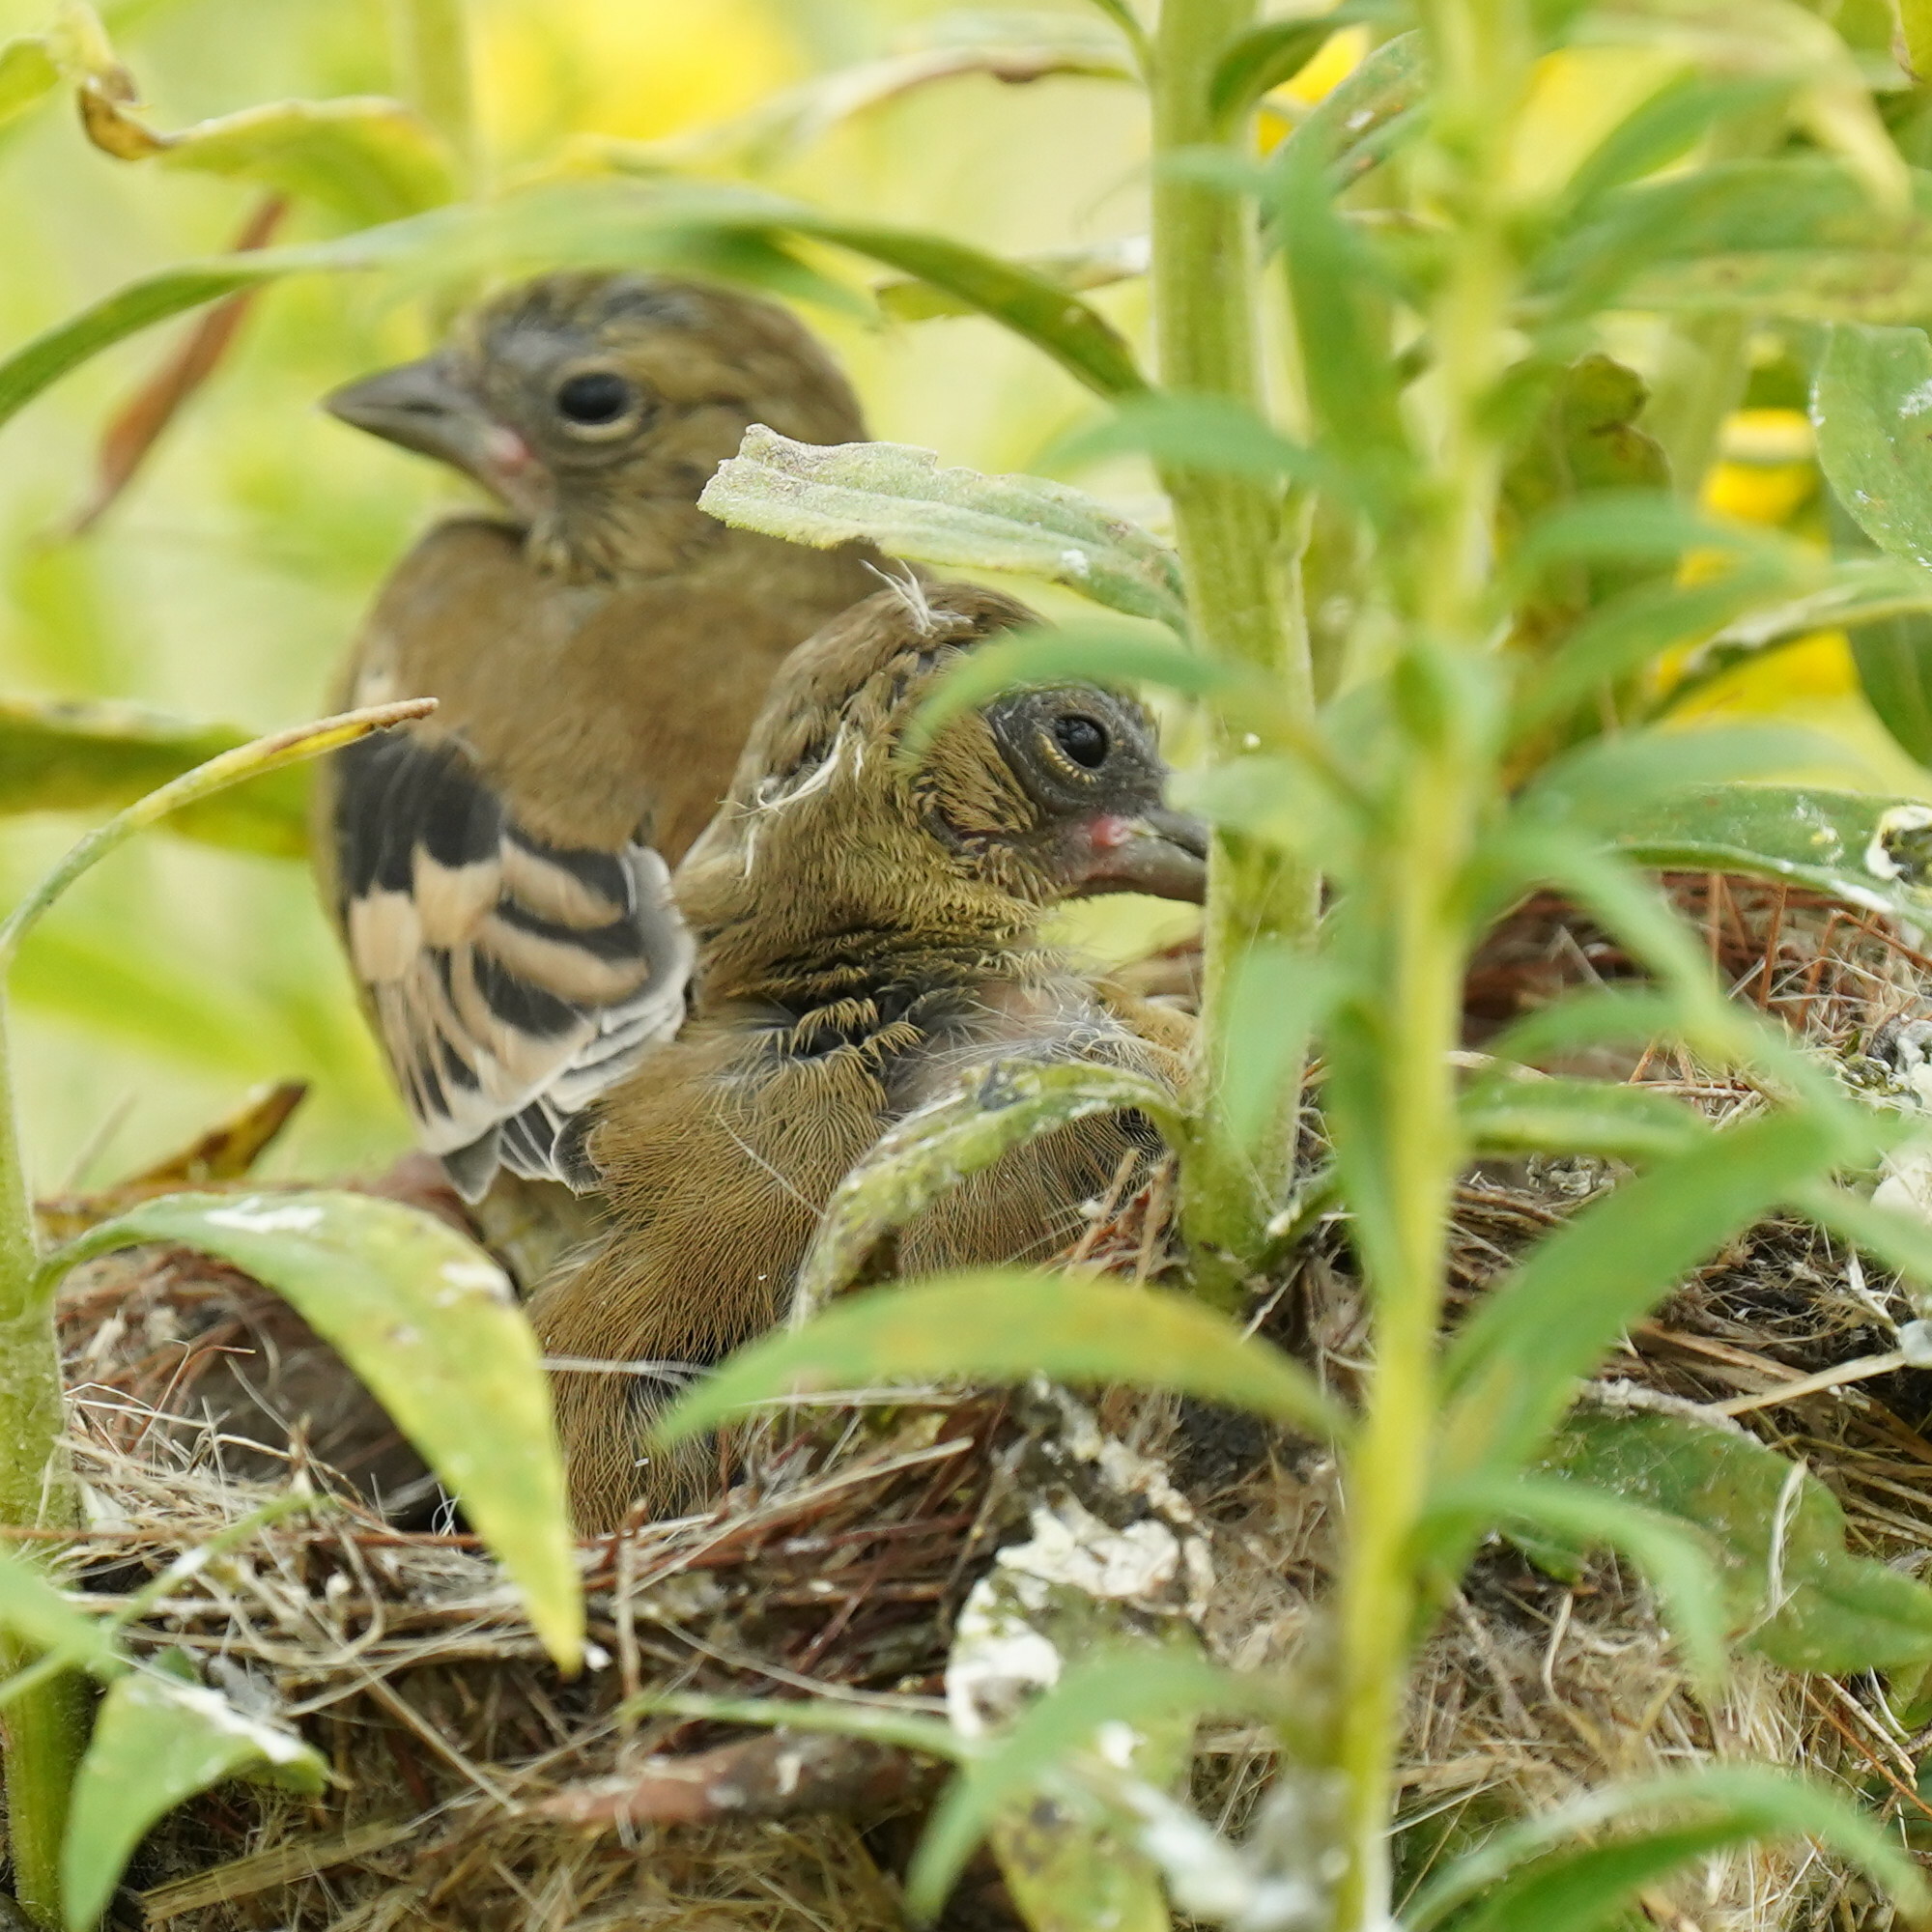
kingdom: Animalia
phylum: Chordata
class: Aves
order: Passeriformes
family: Fringillidae
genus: Spinus
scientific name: Spinus tristis
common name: American goldfinch
